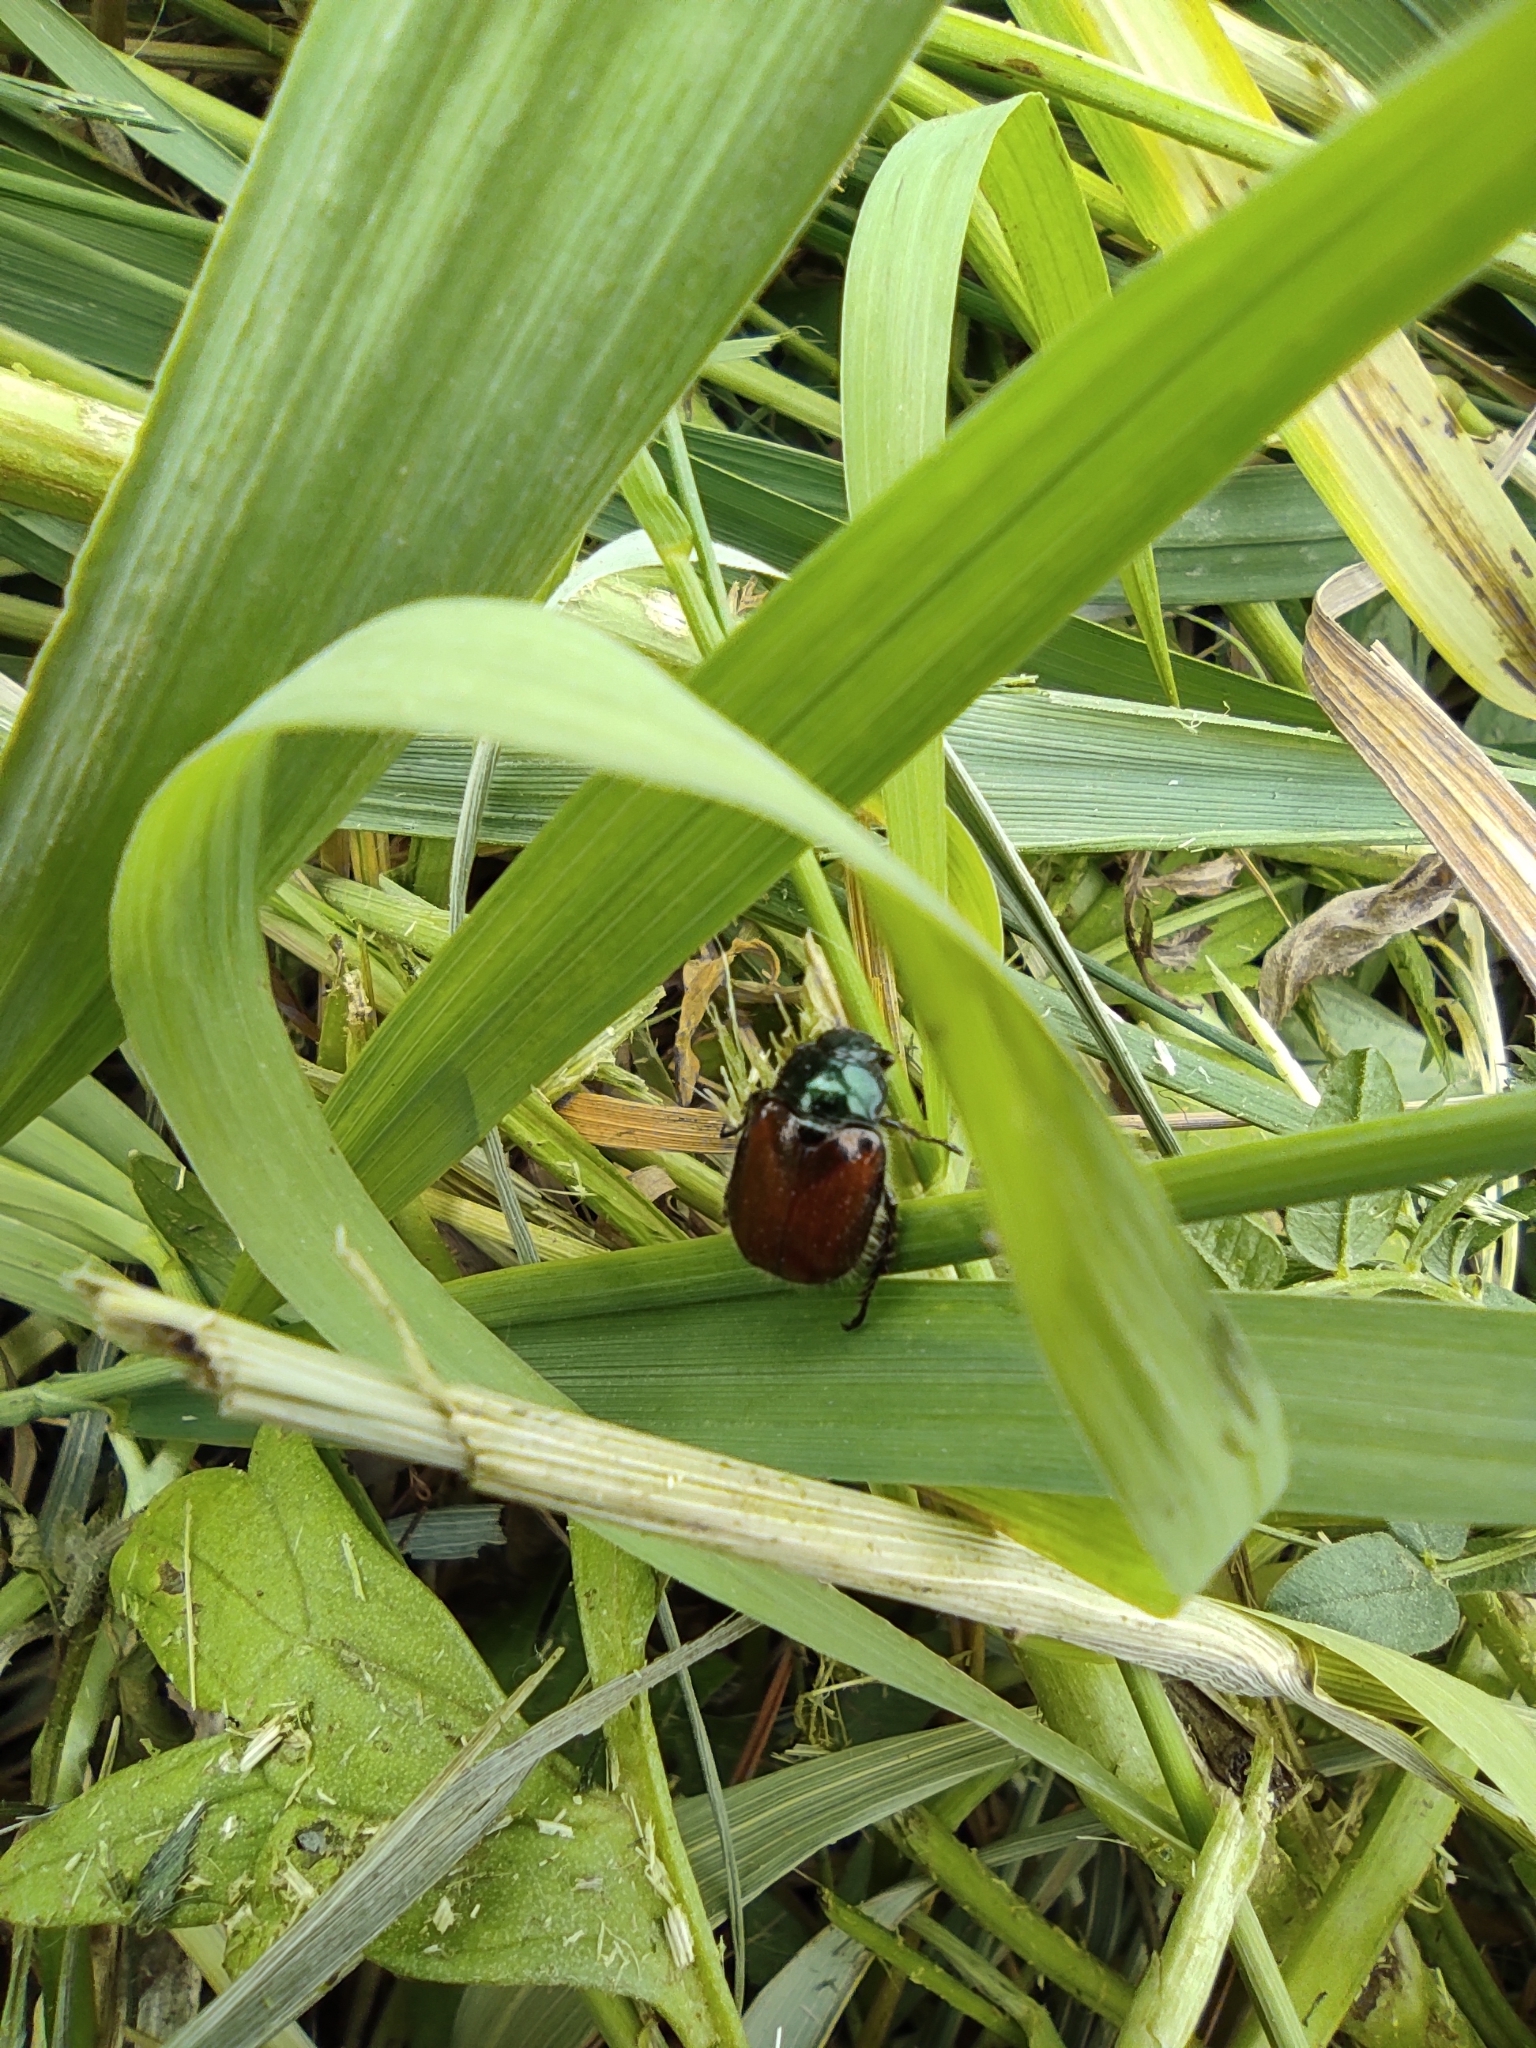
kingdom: Animalia
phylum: Arthropoda
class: Insecta
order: Coleoptera
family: Scarabaeidae
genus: Phyllopertha
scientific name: Phyllopertha horticola
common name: Garden chafer
